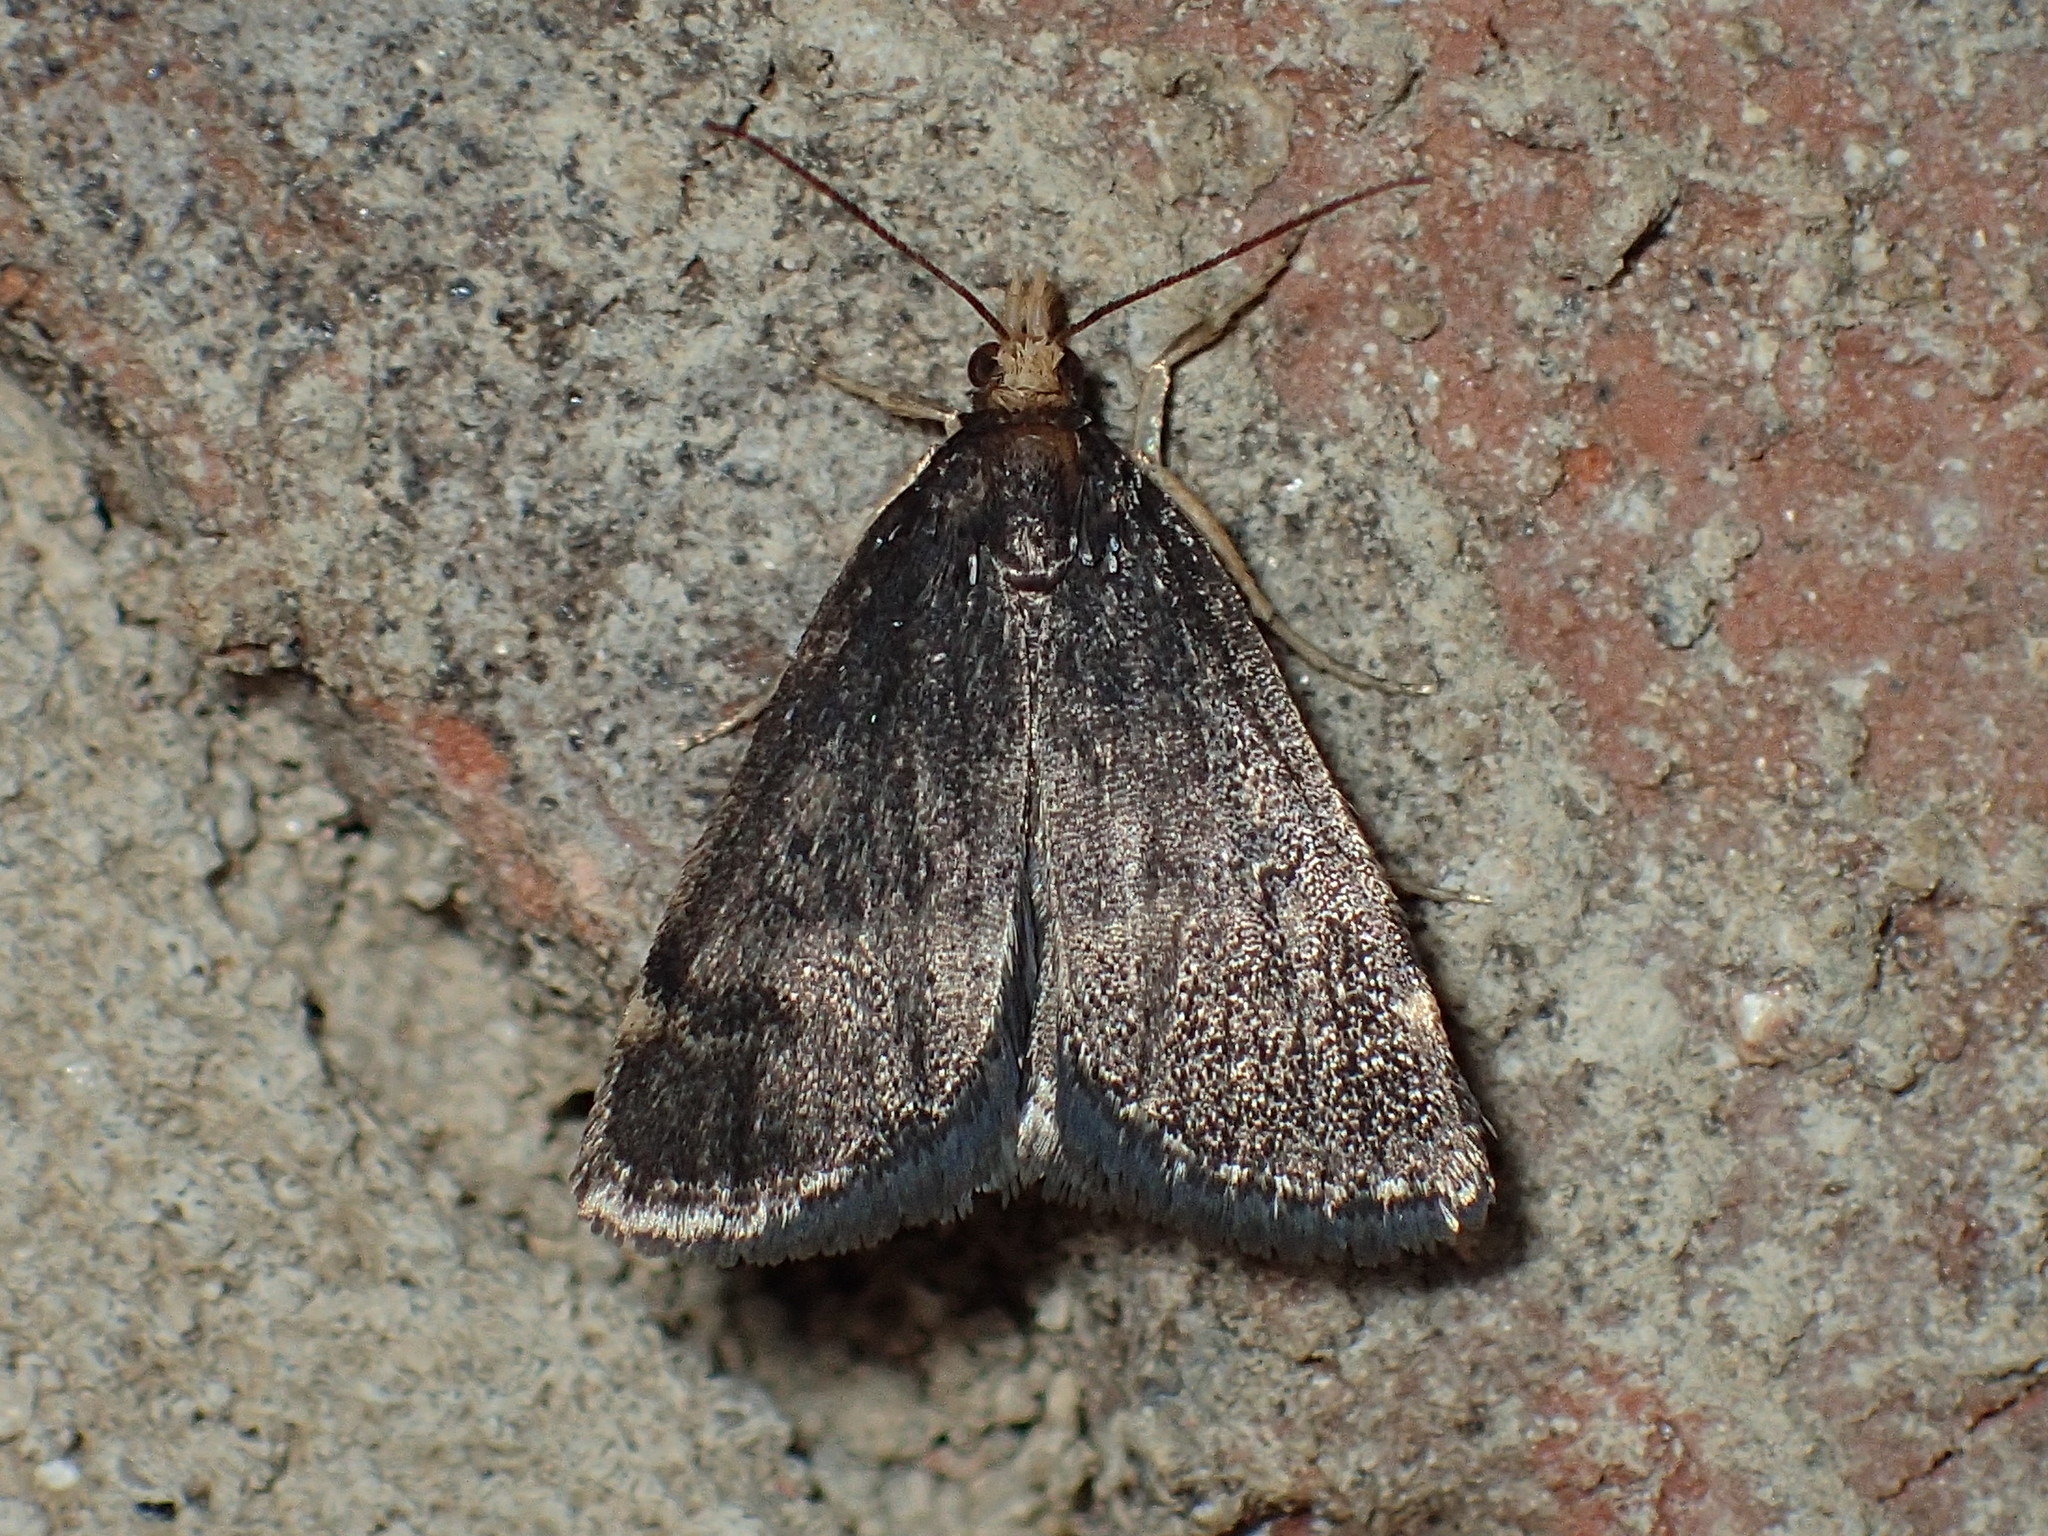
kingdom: Animalia
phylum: Arthropoda
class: Insecta
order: Lepidoptera
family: Crambidae
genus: Pyrausta
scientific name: Pyrausta merrickalis
